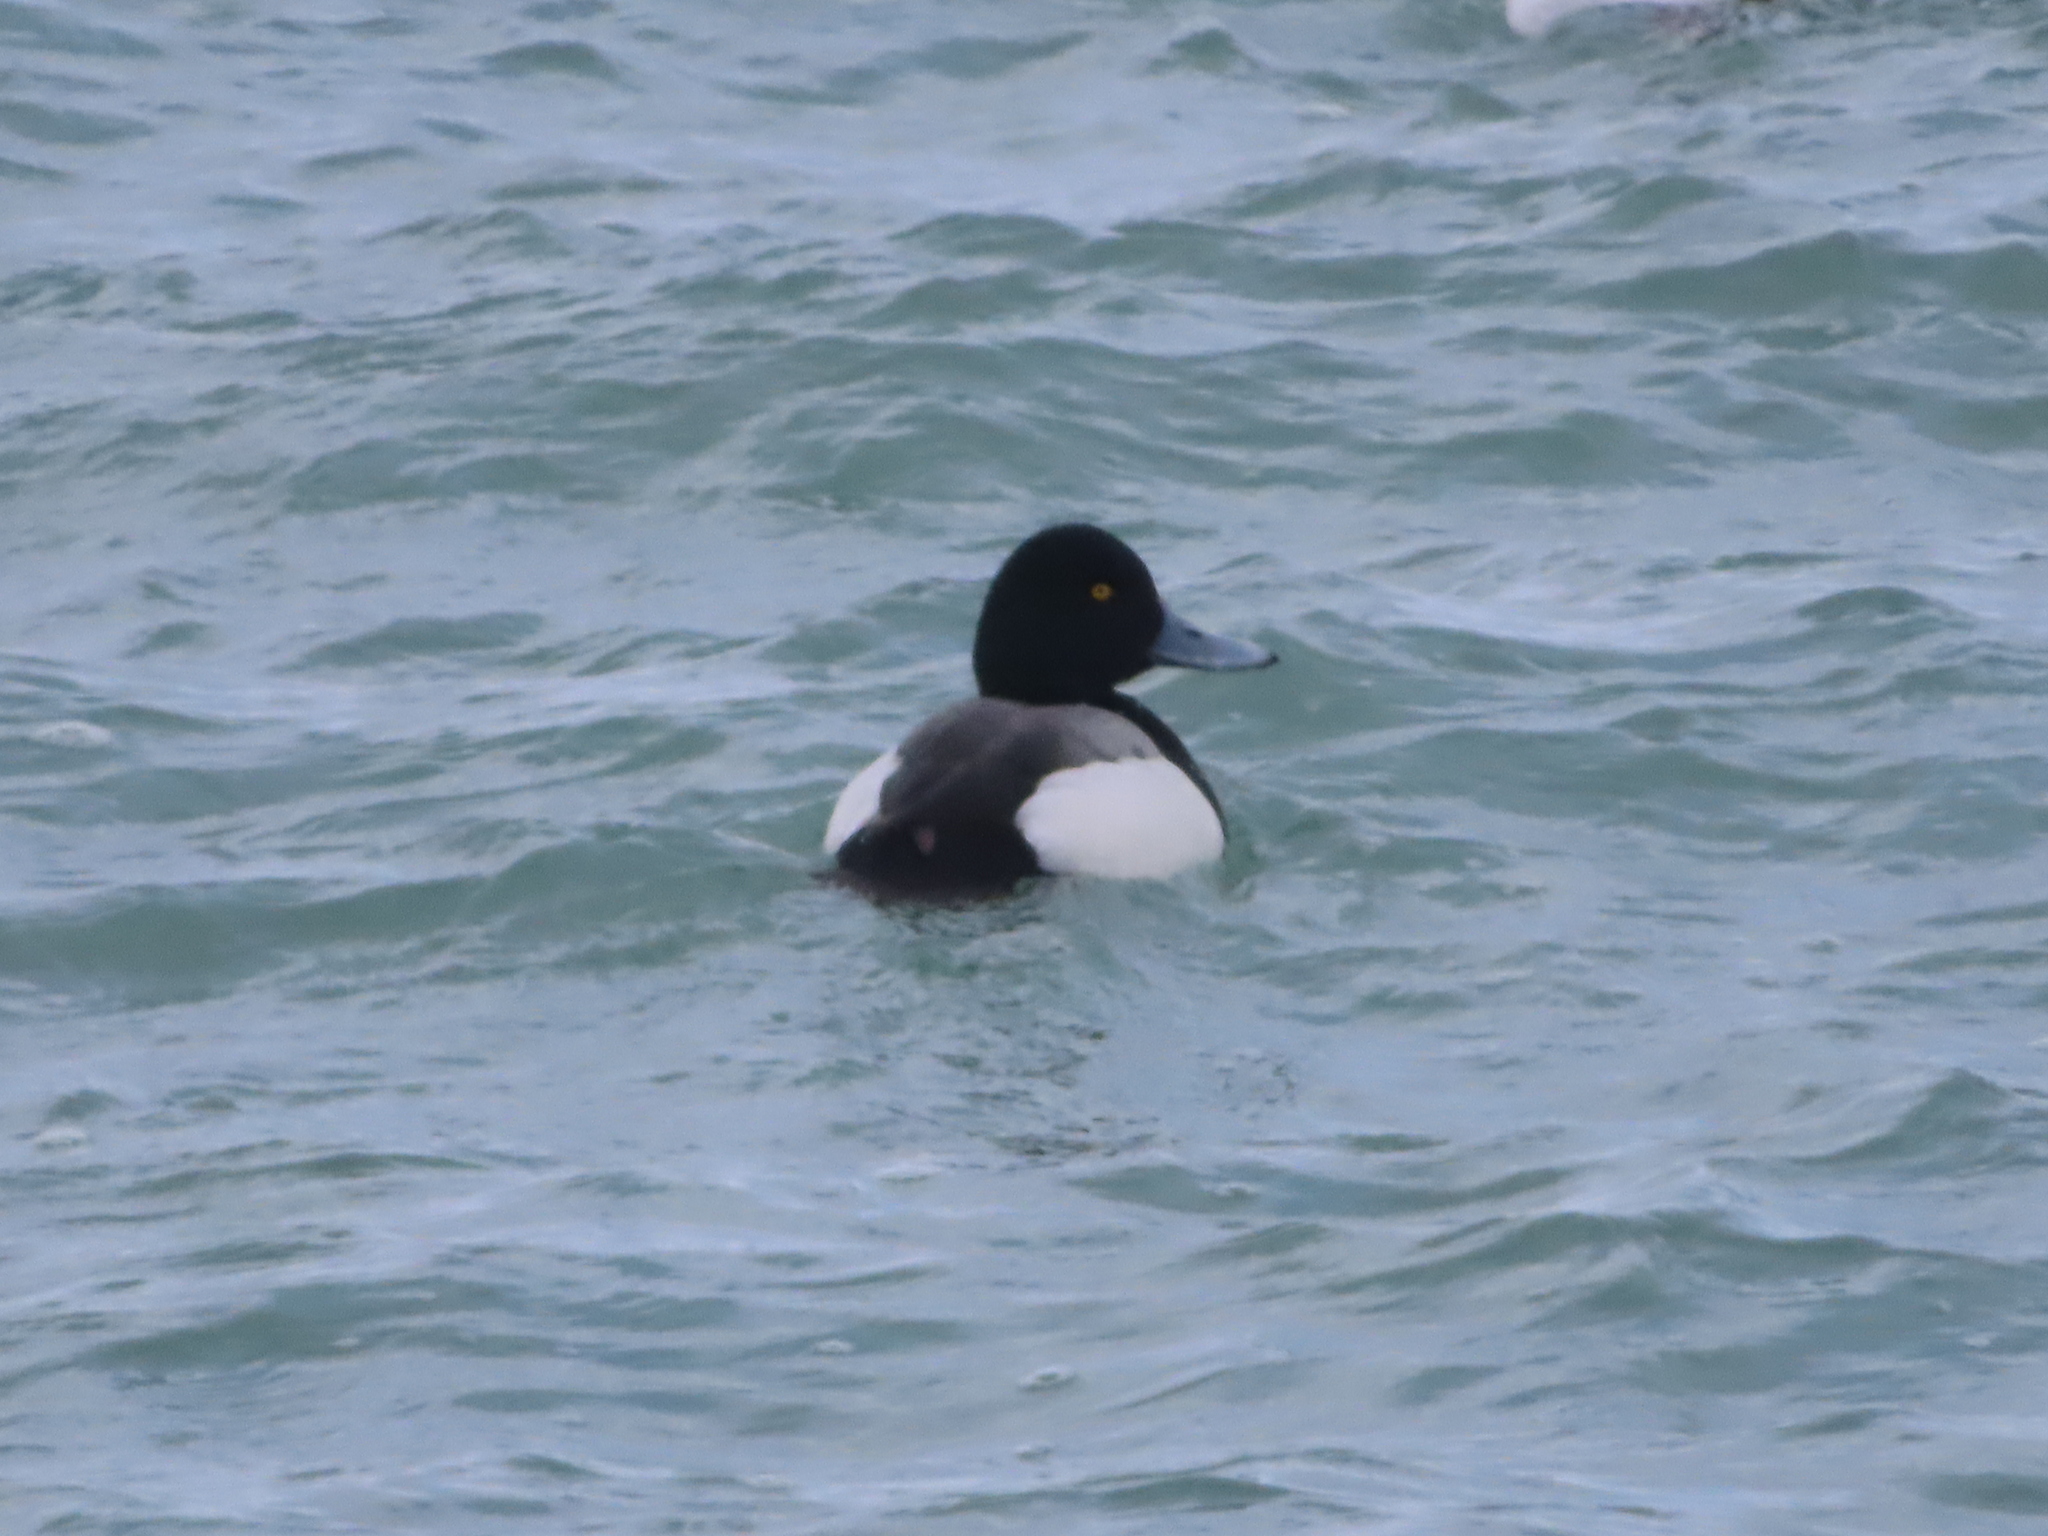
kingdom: Animalia
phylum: Chordata
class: Aves
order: Anseriformes
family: Anatidae
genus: Aythya
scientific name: Aythya marila
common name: Greater scaup
